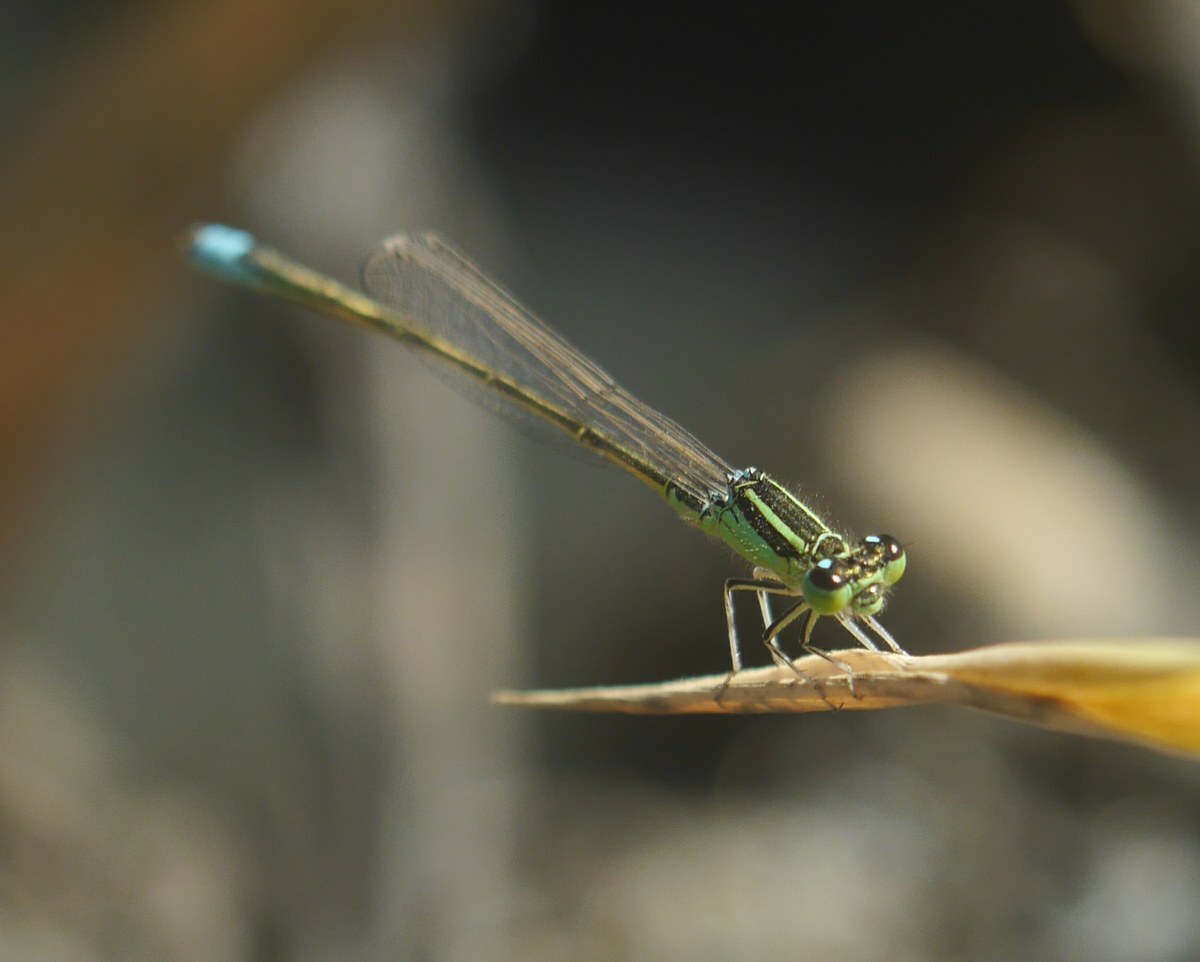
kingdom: Animalia
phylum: Arthropoda
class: Insecta
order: Odonata
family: Coenagrionidae
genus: Ischnura
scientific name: Ischnura pumilio
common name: Scarce blue-tailed damselfly
